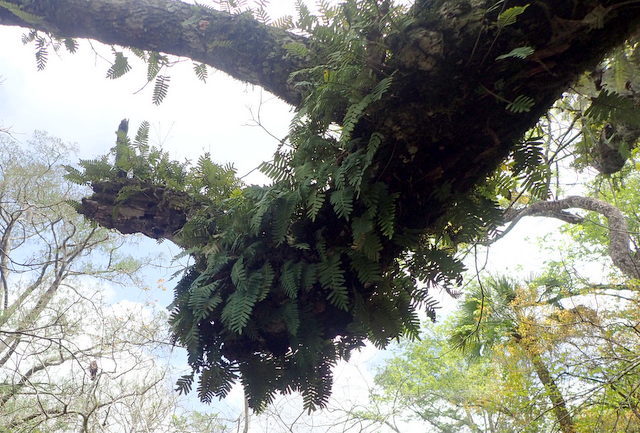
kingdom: Plantae
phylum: Tracheophyta
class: Polypodiopsida
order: Polypodiales
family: Polypodiaceae
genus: Pleopeltis
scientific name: Pleopeltis michauxiana
